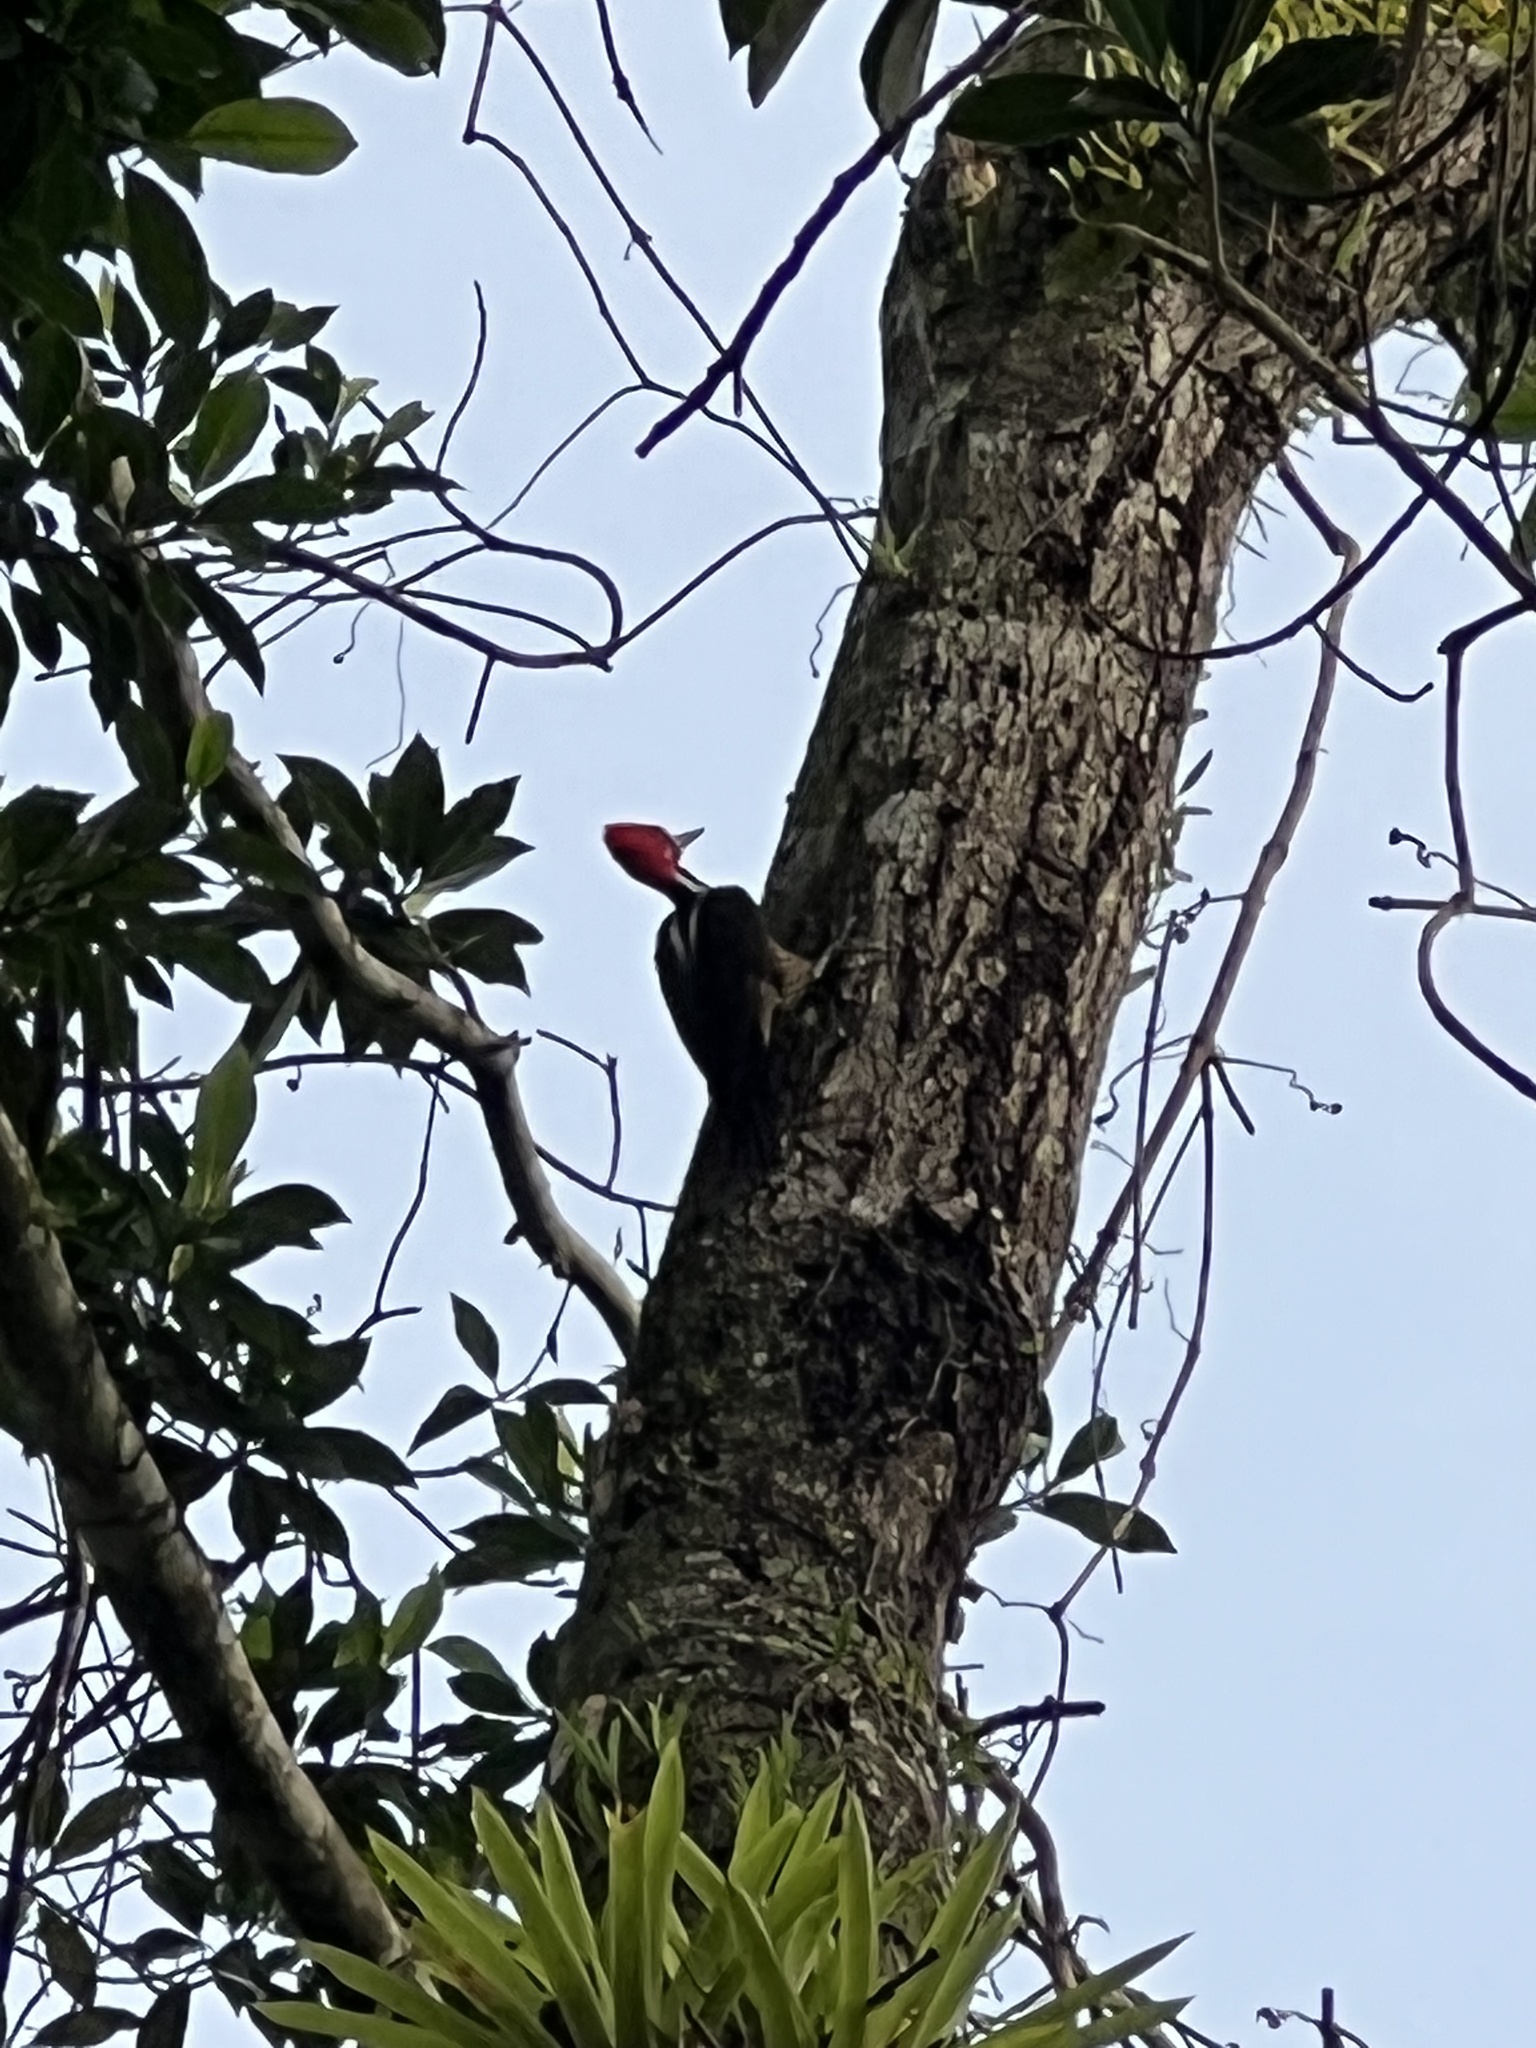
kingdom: Animalia
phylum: Chordata
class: Aves
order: Piciformes
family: Picidae
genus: Campephilus
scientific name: Campephilus melanoleucos
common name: Crimson-crested woodpecker
